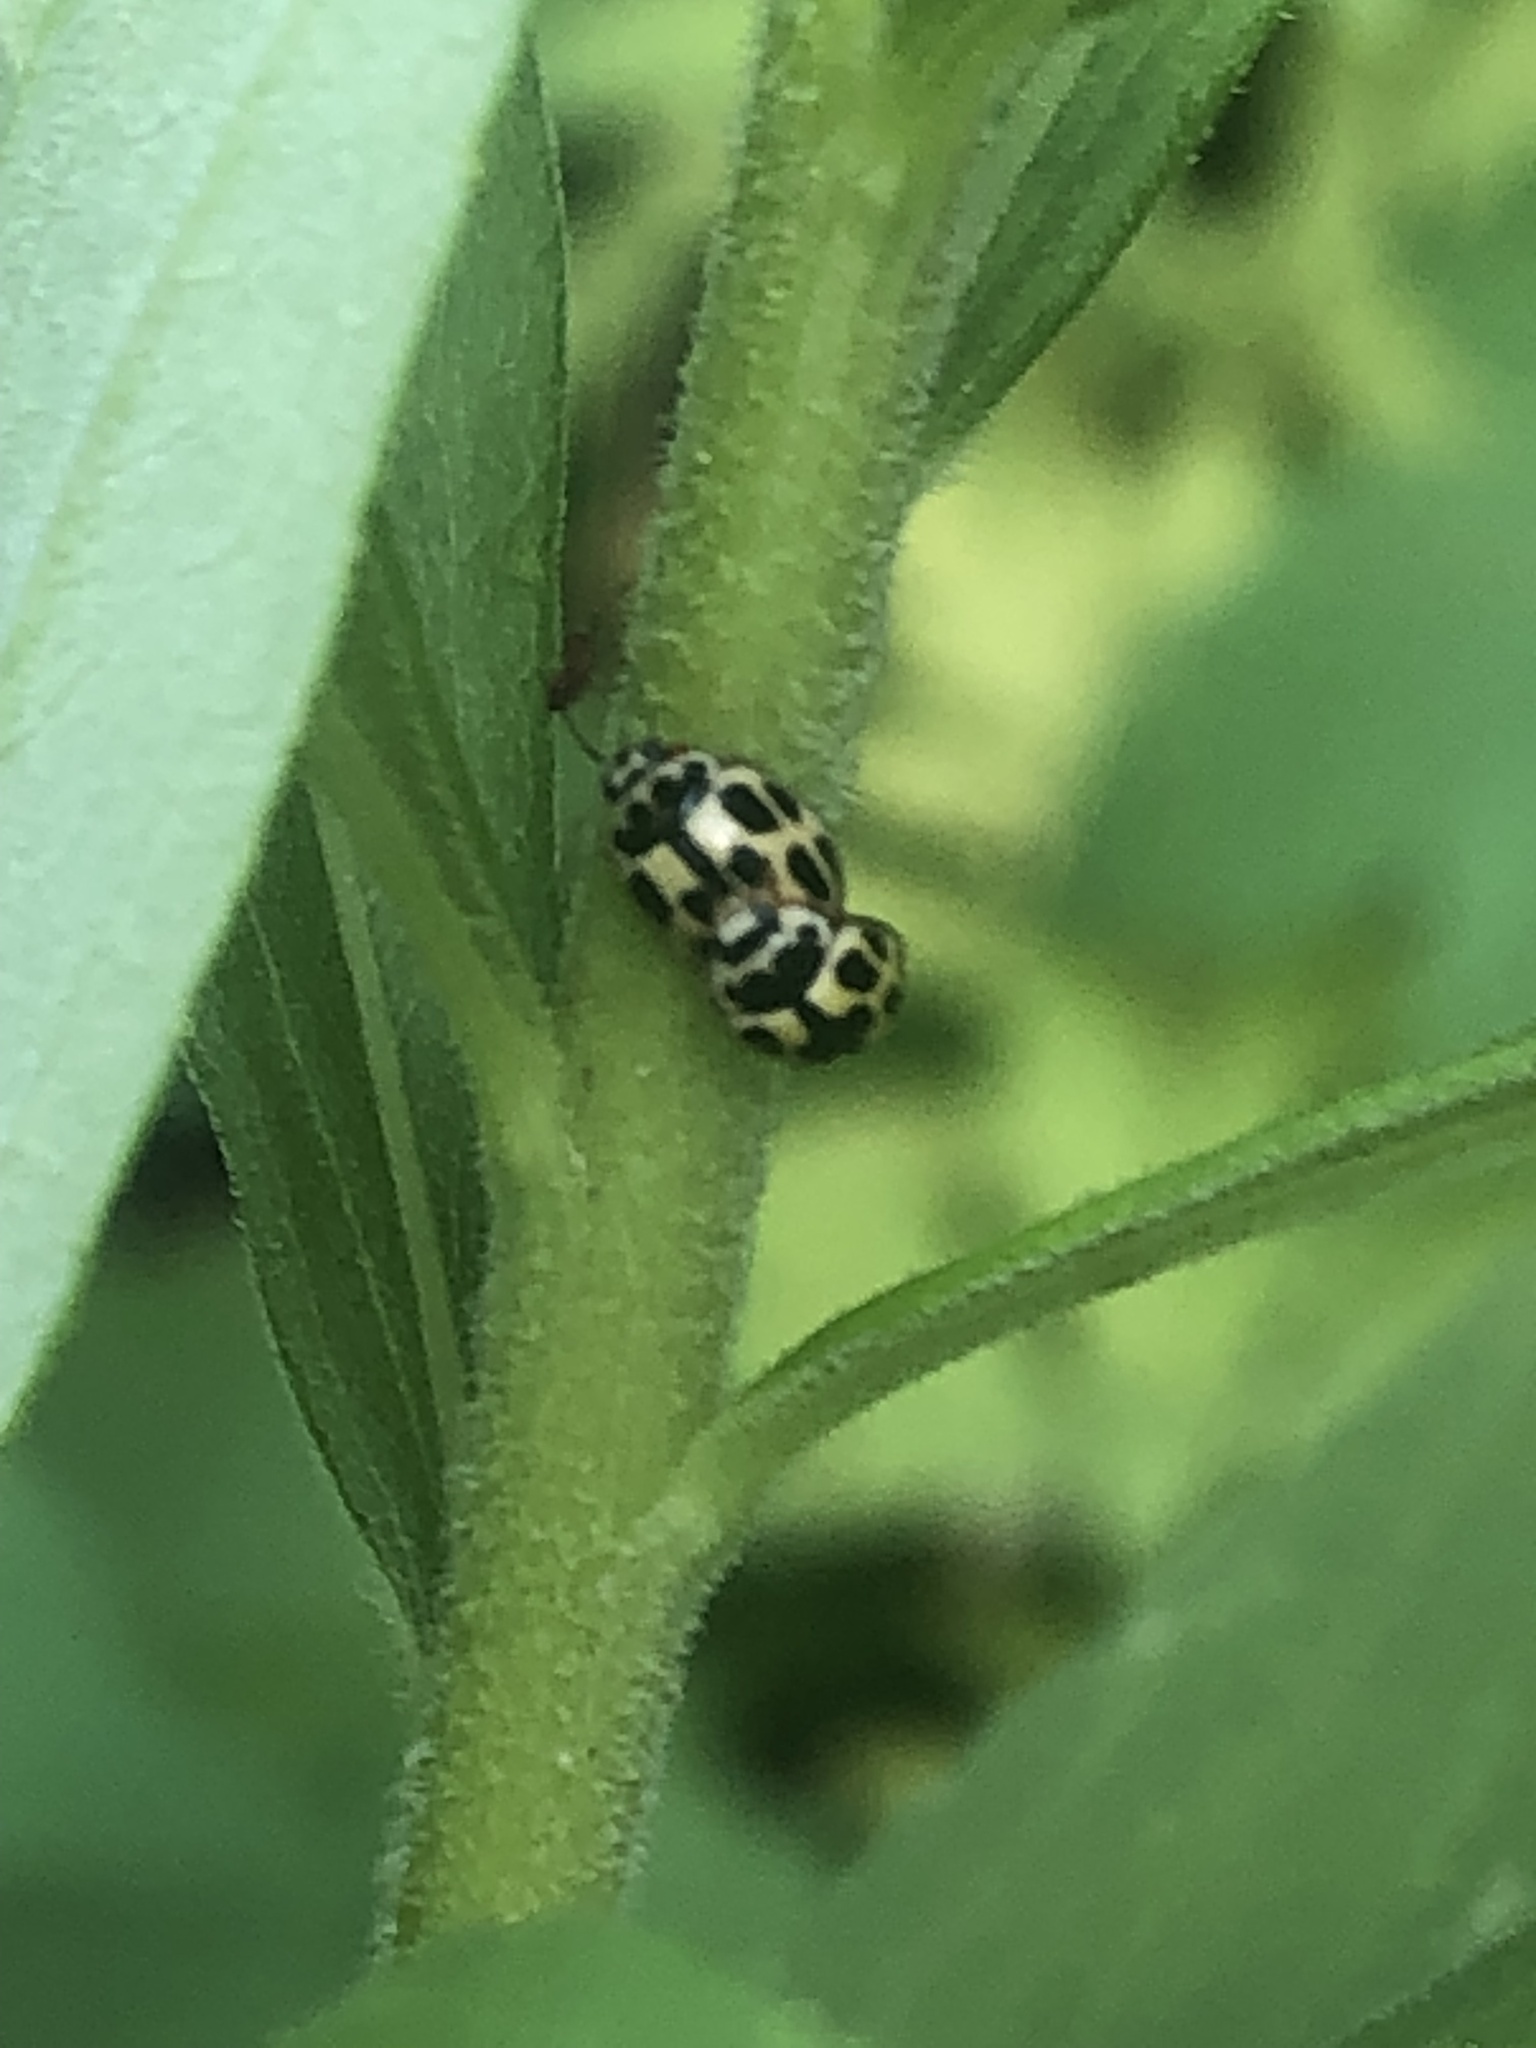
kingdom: Animalia
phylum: Arthropoda
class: Insecta
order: Coleoptera
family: Coccinellidae
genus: Propylaea
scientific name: Propylaea quatuordecimpunctata
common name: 14-spotted ladybird beetle
